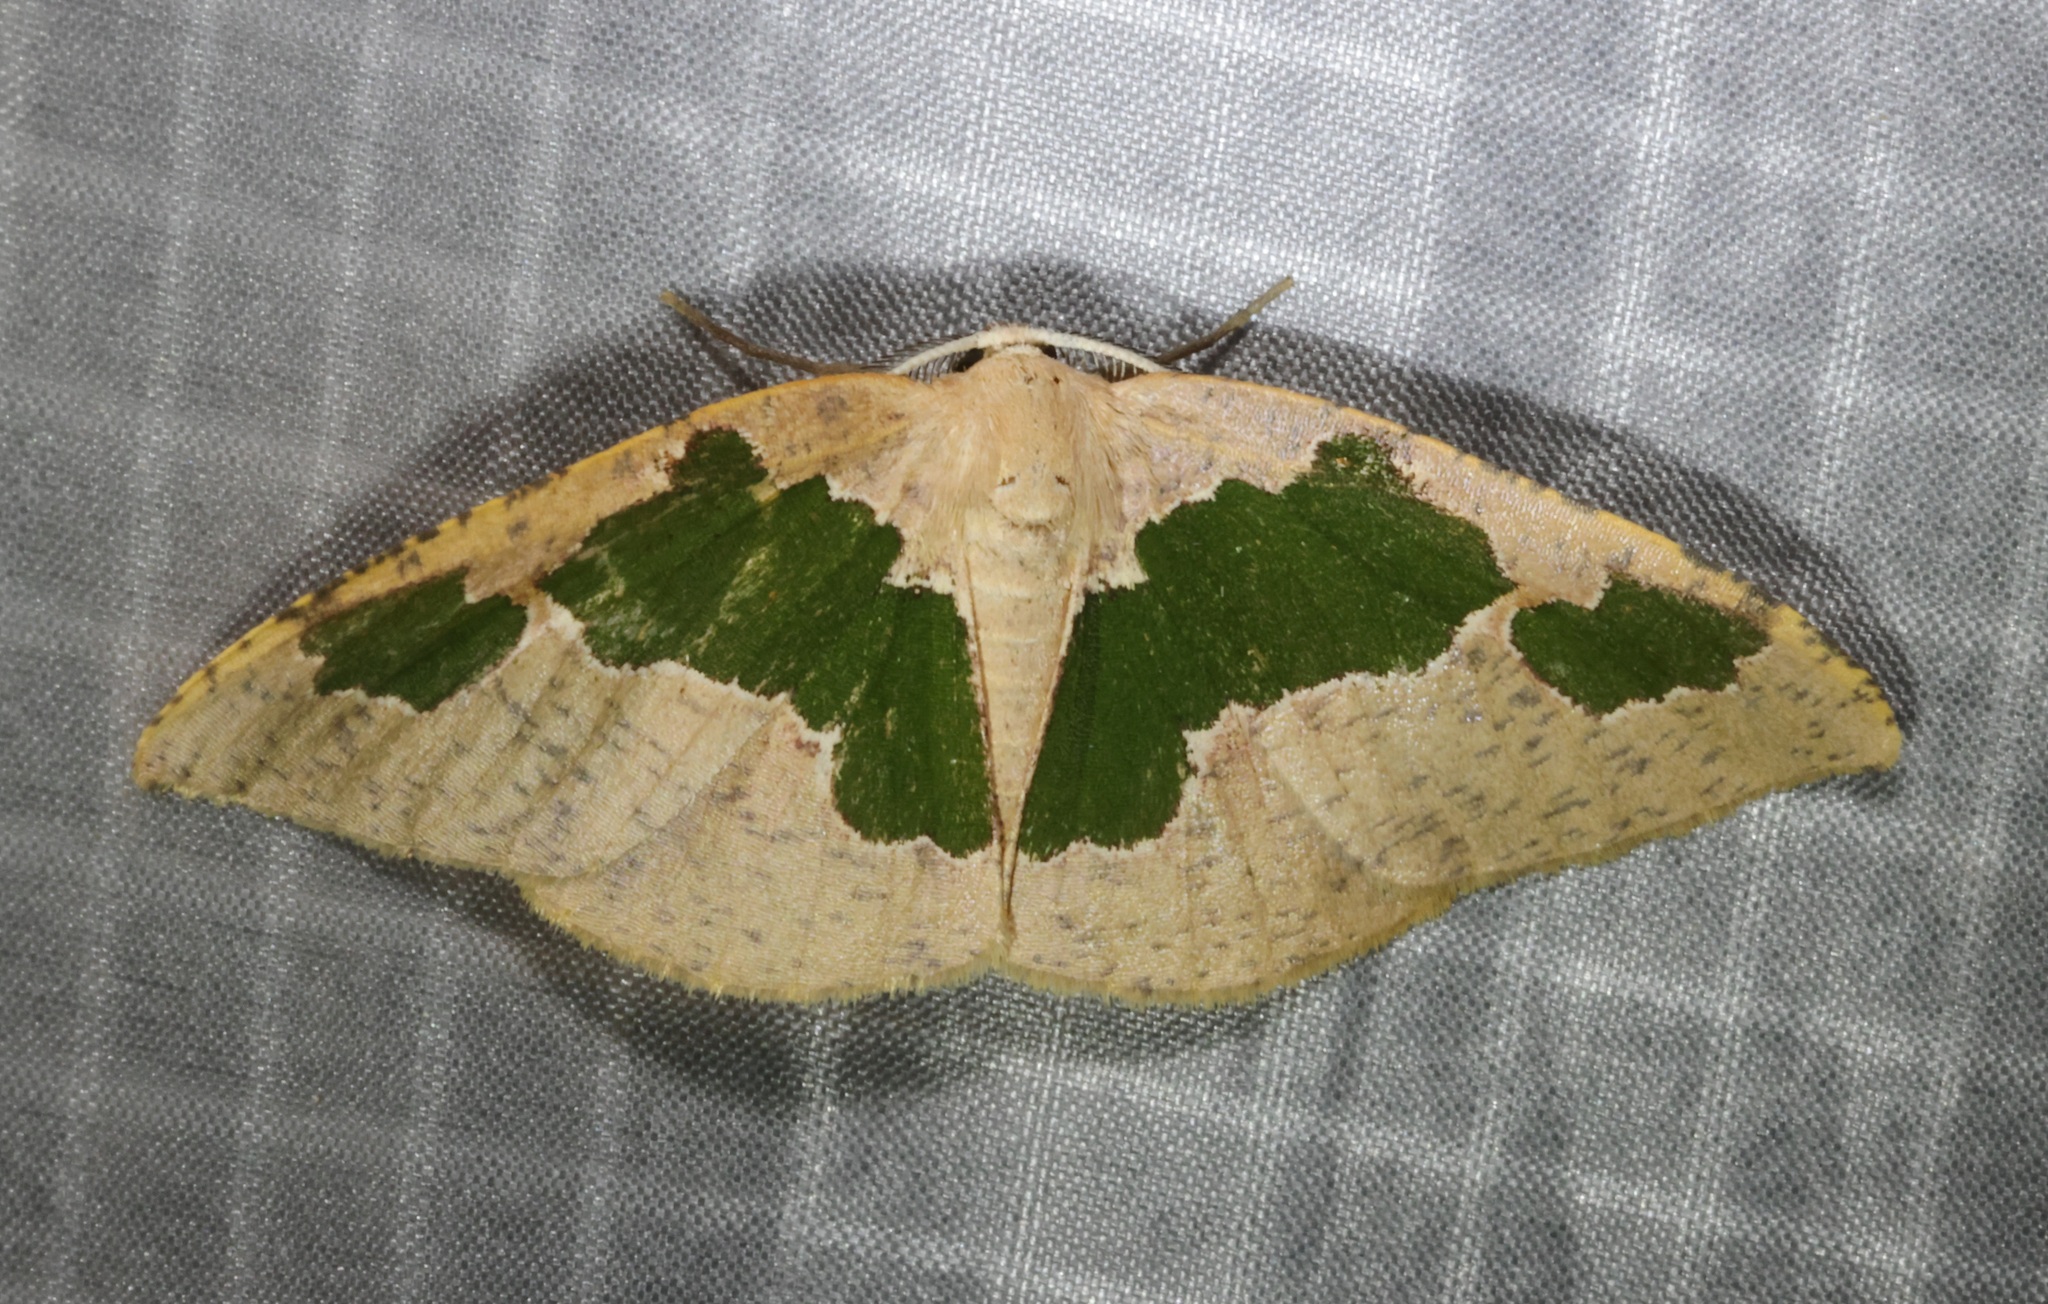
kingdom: Animalia
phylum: Arthropoda
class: Insecta
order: Lepidoptera
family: Geometridae
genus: Celenna
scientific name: Celenna festivaria
